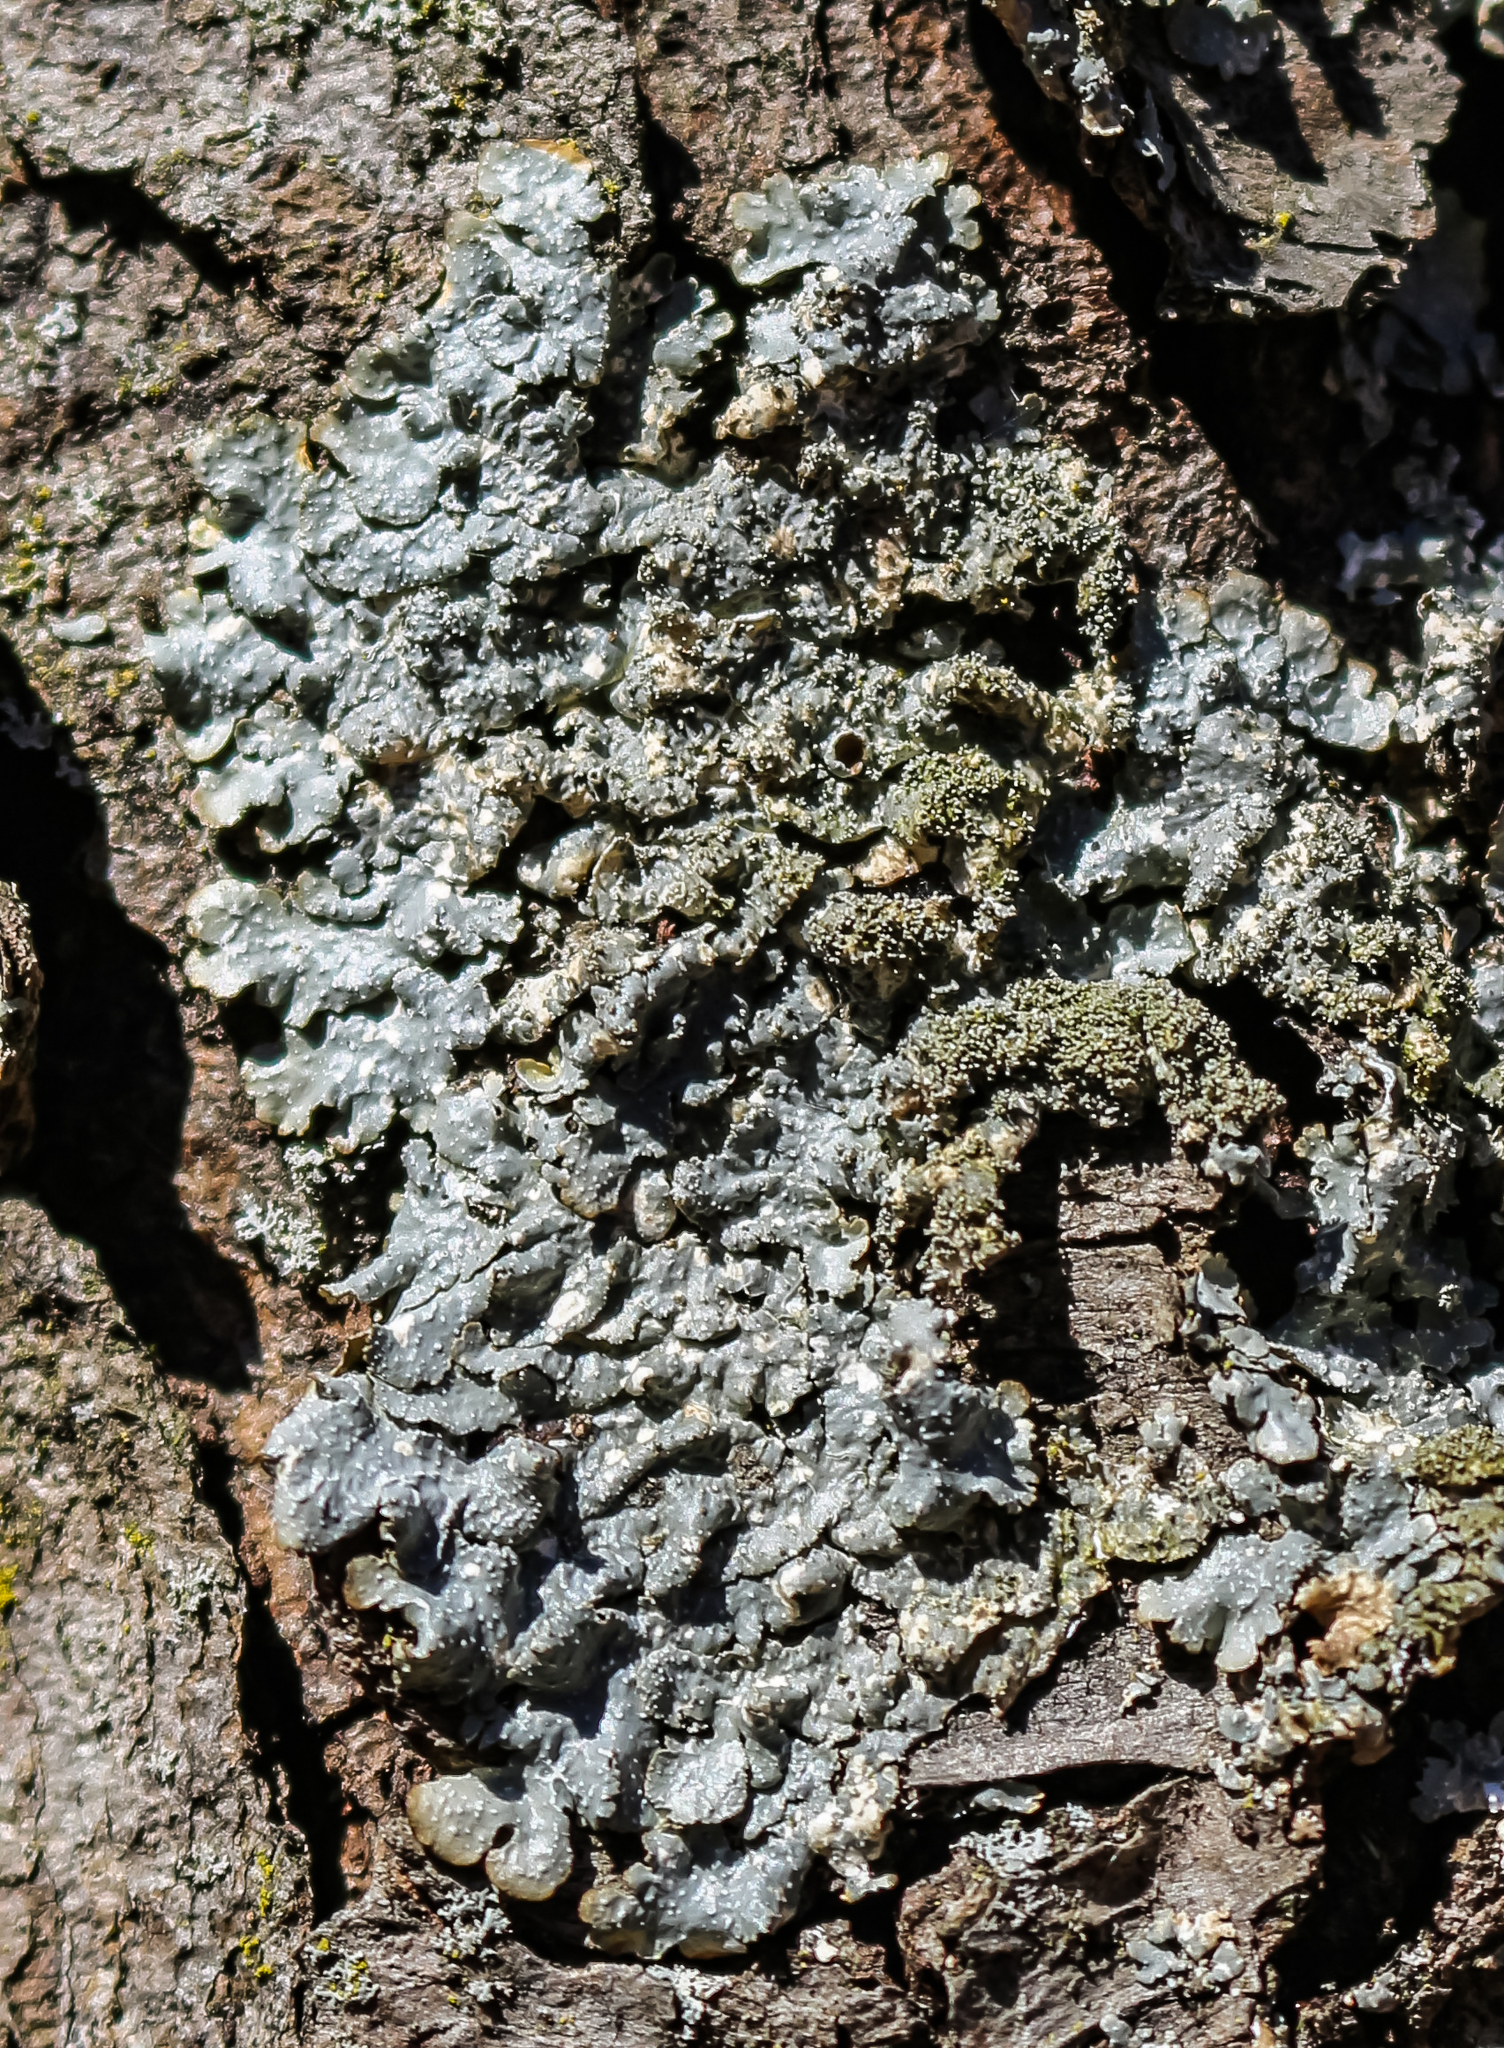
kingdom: Fungi
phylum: Ascomycota
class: Lecanoromycetes
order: Lecanorales
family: Parmeliaceae
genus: Punctelia
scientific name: Punctelia rudecta
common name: Rough speckled shield lichen
